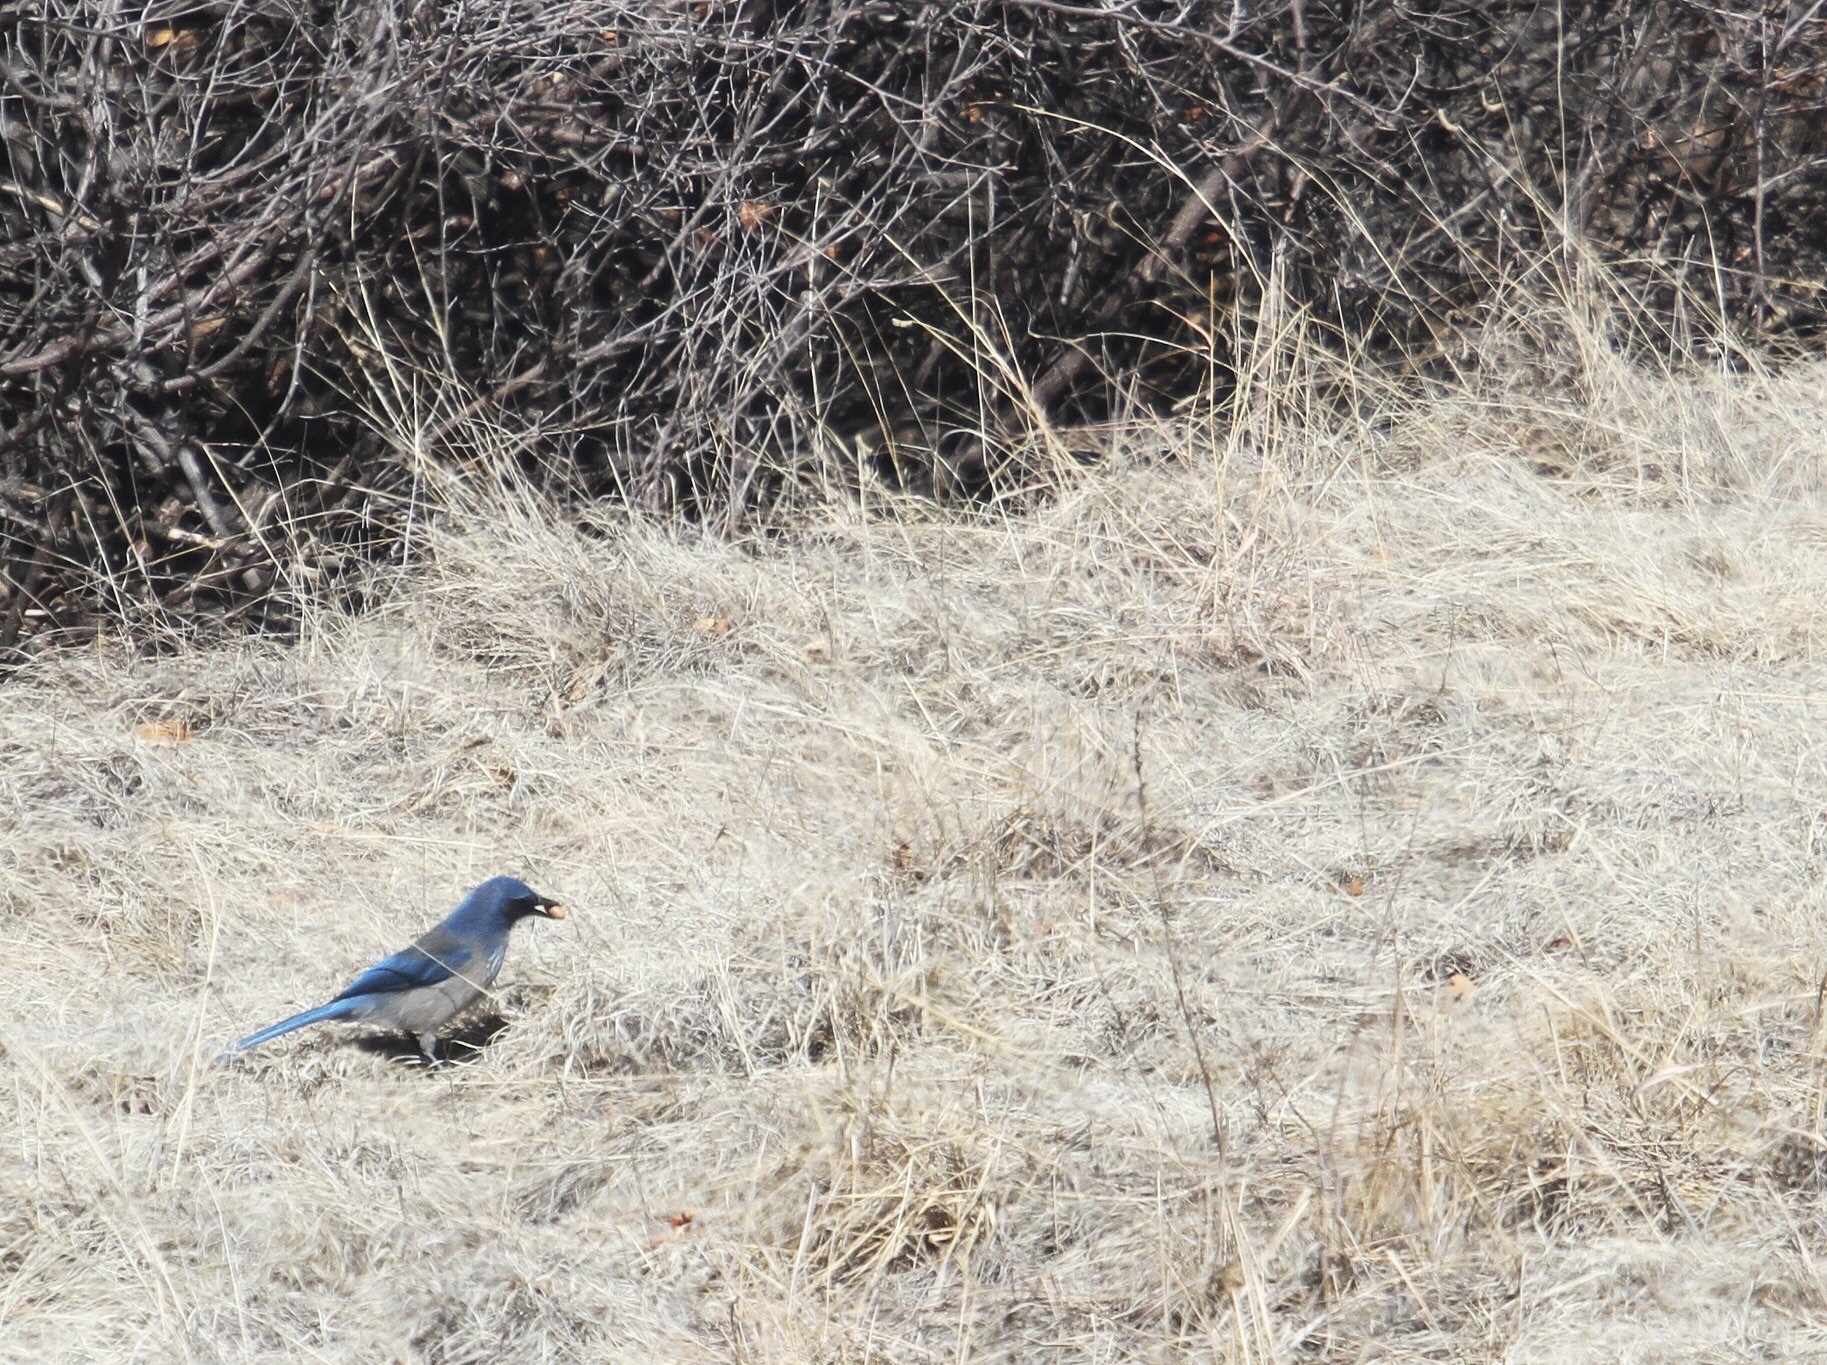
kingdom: Animalia
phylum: Chordata
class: Aves
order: Passeriformes
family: Corvidae
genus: Aphelocoma
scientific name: Aphelocoma woodhouseii
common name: Woodhouse's scrub-jay
